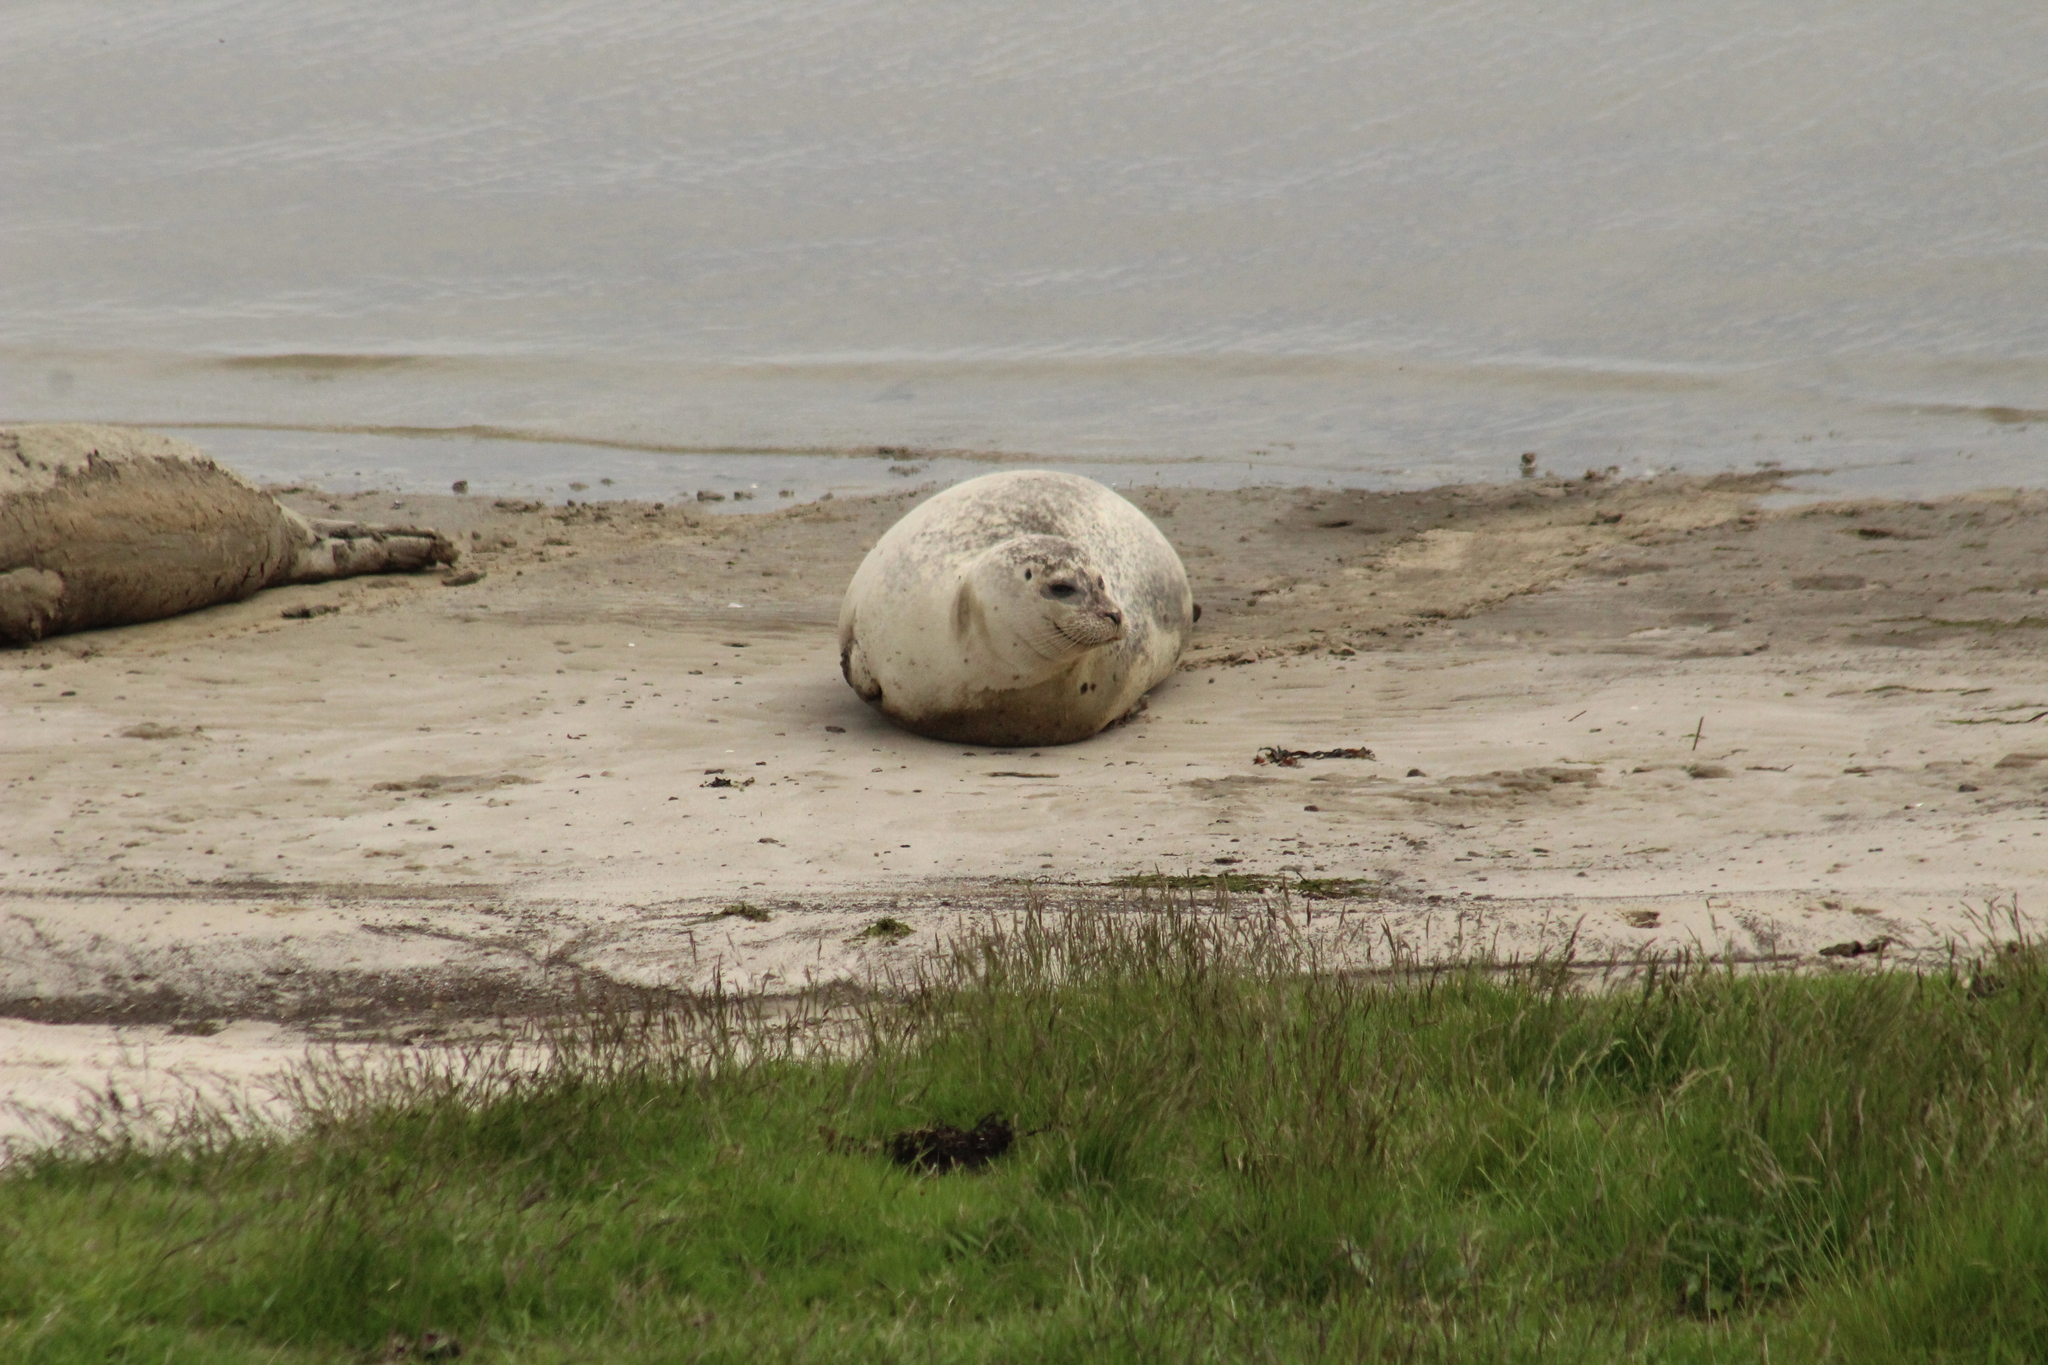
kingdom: Animalia
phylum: Chordata
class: Mammalia
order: Carnivora
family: Phocidae
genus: Phoca
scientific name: Phoca vitulina
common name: Harbor seal
